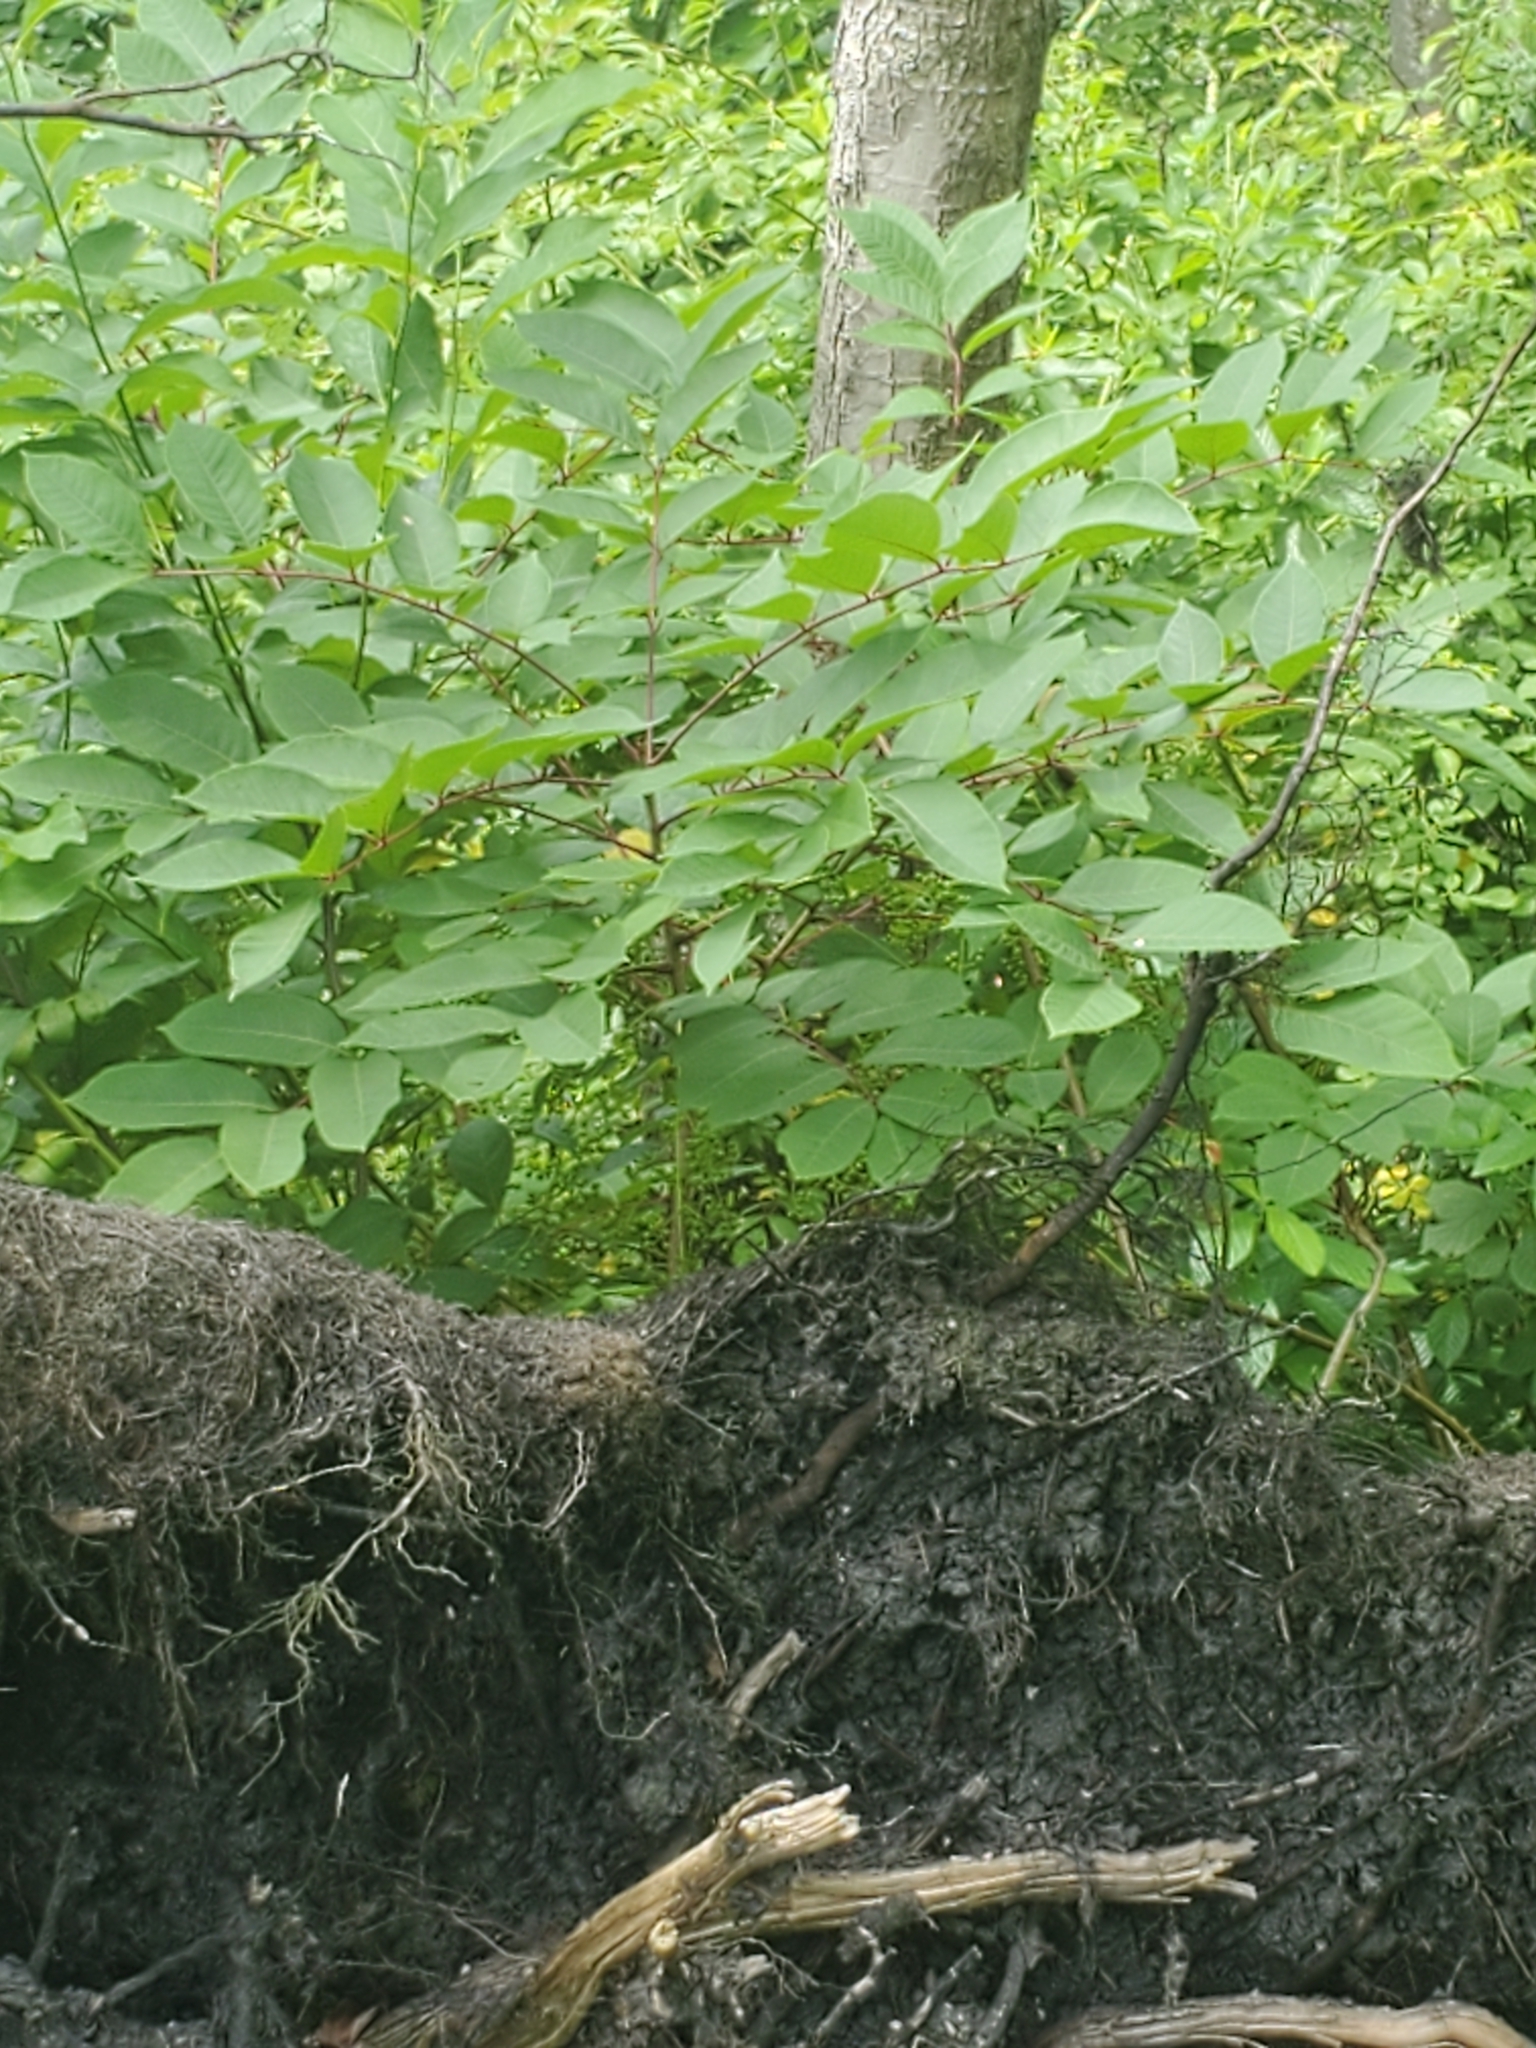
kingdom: Plantae
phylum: Tracheophyta
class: Magnoliopsida
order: Sapindales
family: Anacardiaceae
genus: Toxicodendron
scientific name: Toxicodendron vernix
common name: Poison sumac
